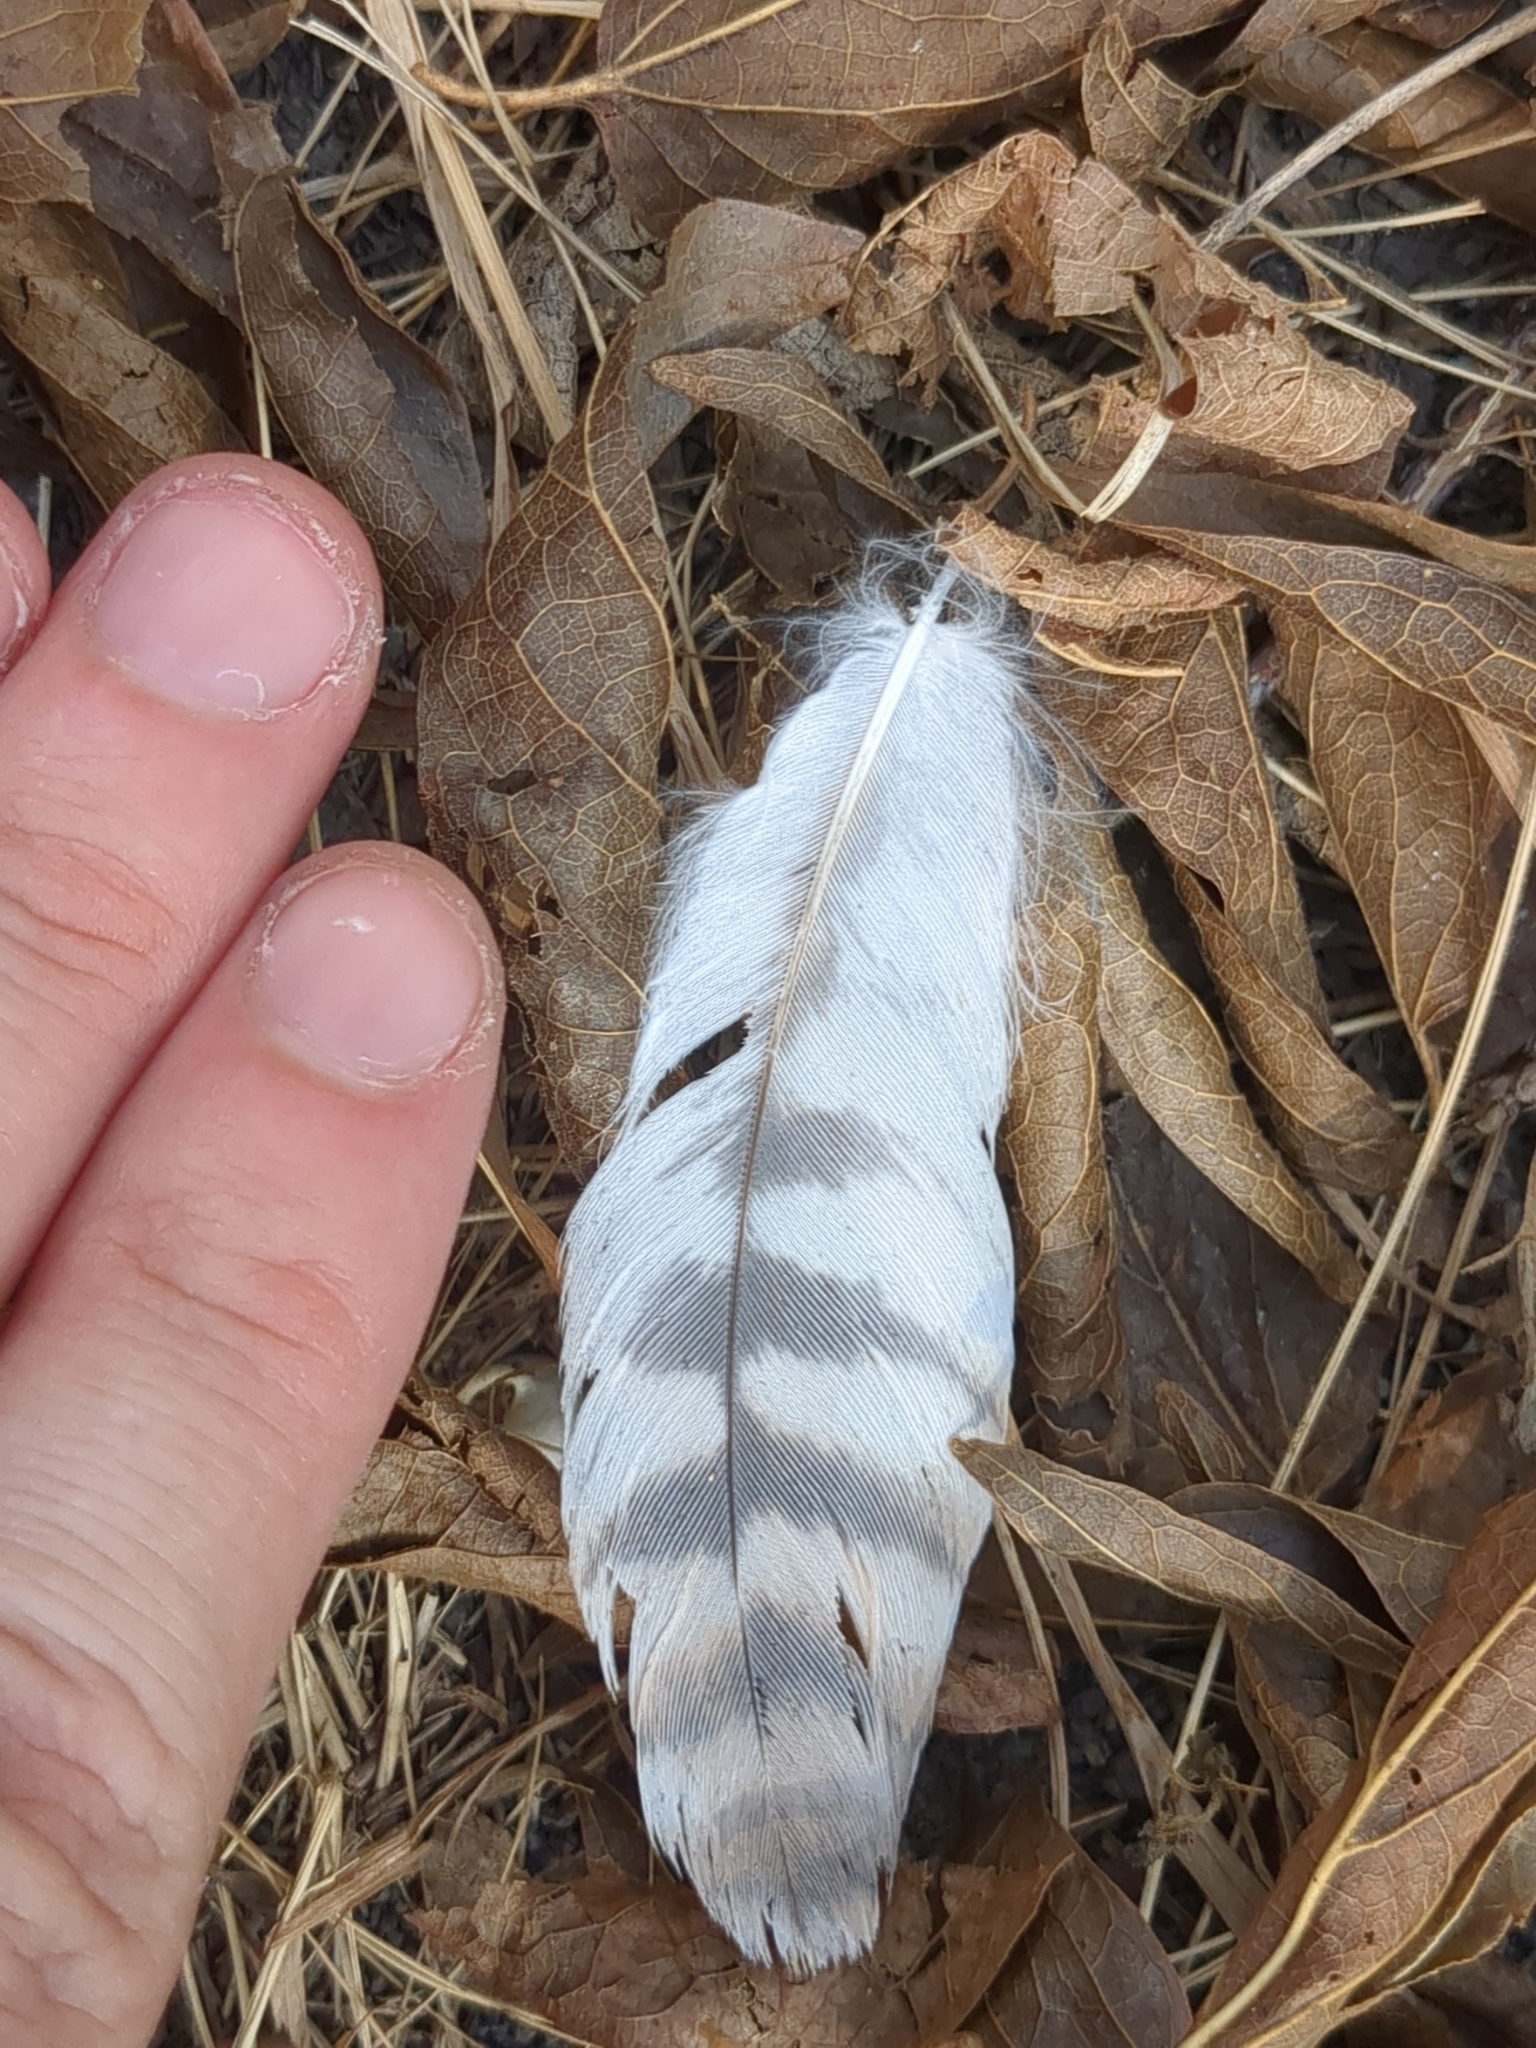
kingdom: Animalia
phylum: Chordata
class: Aves
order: Accipitriformes
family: Accipitridae
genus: Buteo
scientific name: Buteo lineatus
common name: Red-shouldered hawk
